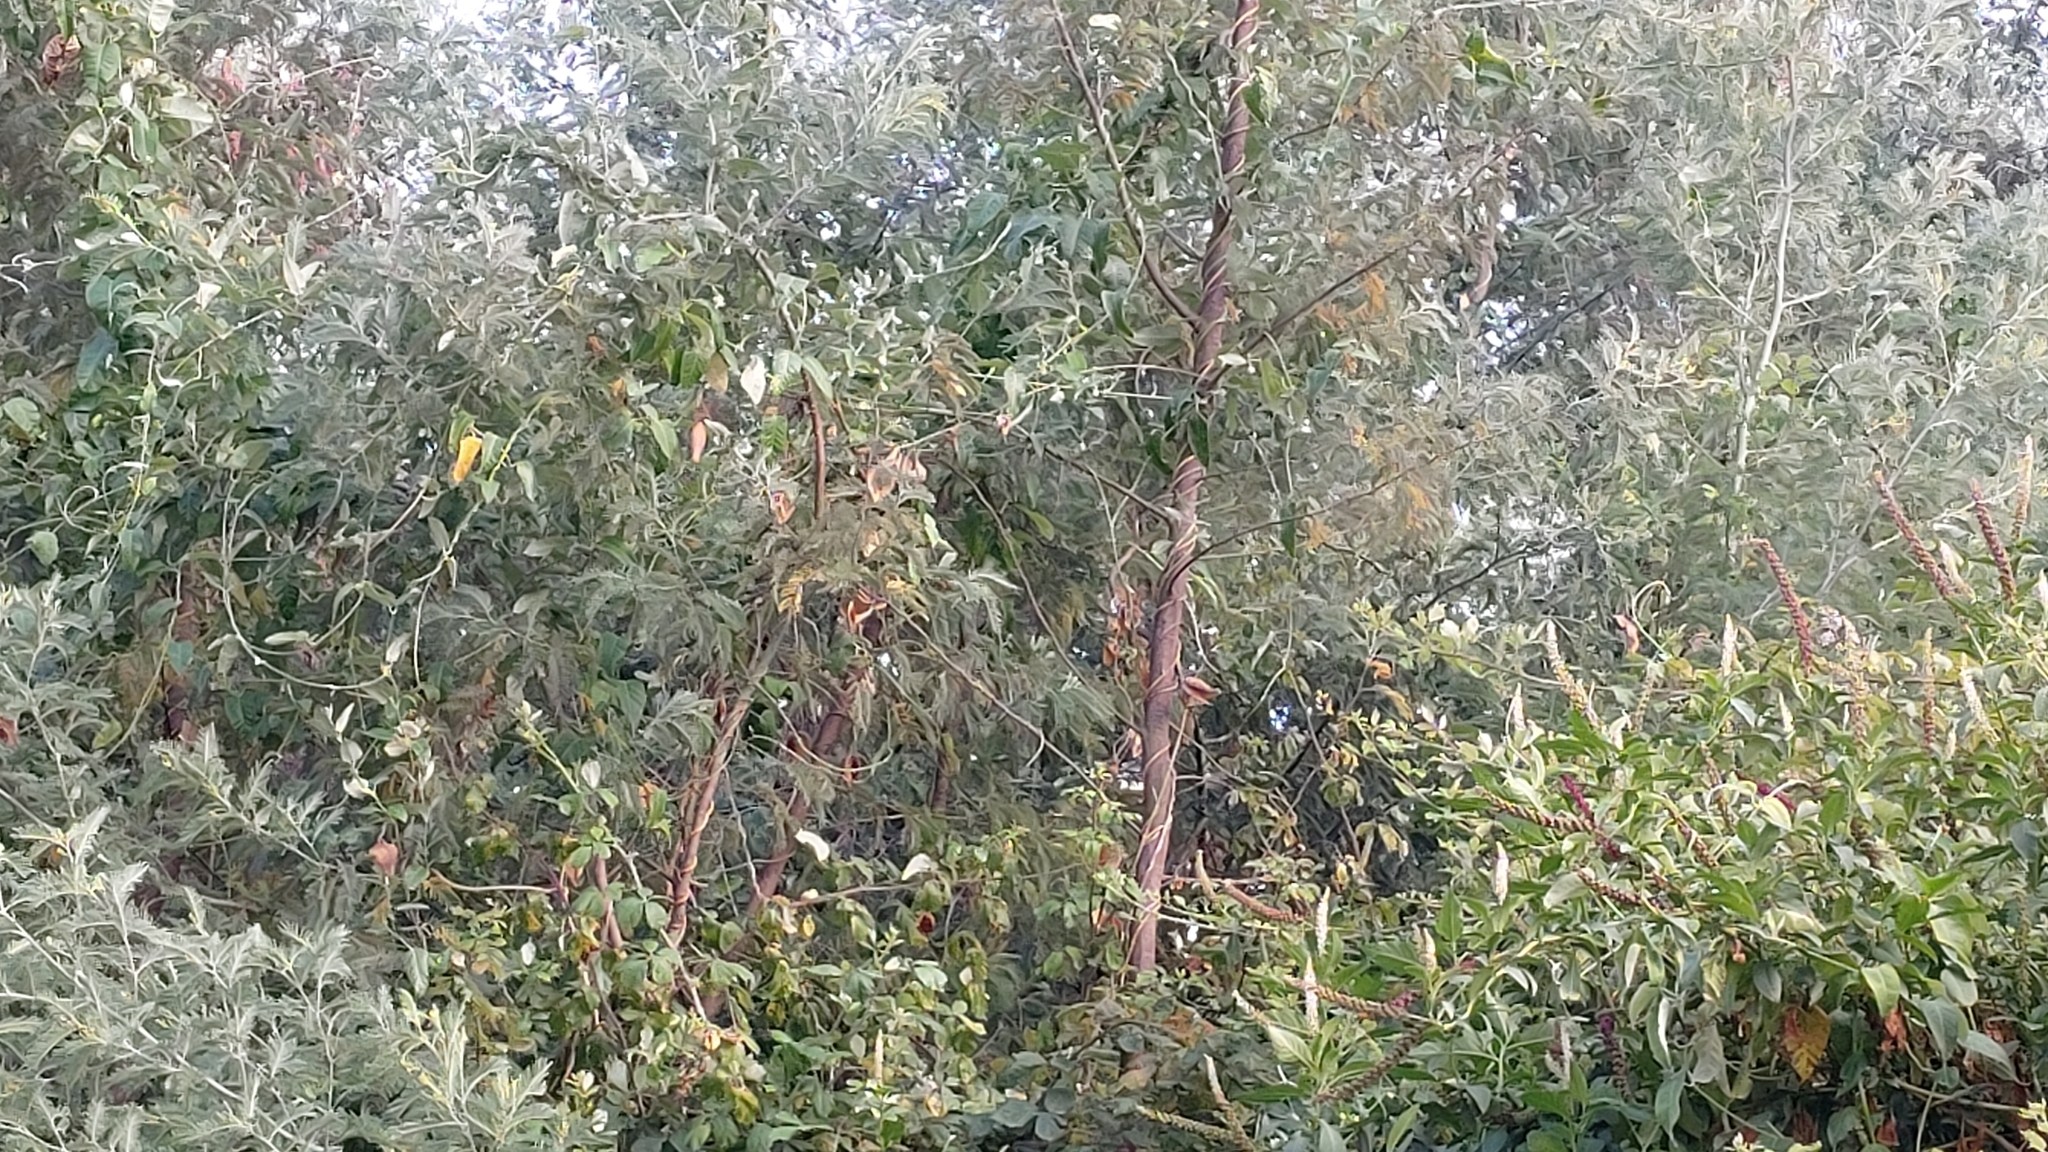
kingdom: Plantae
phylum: Tracheophyta
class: Magnoliopsida
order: Gentianales
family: Apocynaceae
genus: Araujia
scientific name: Araujia sericifera
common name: White bladderflower
